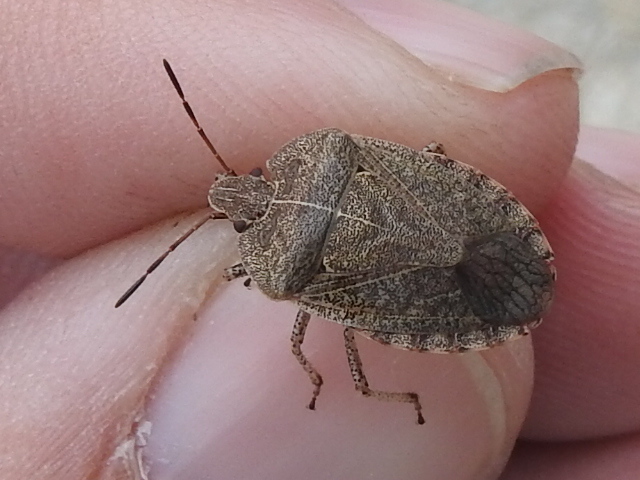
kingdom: Animalia
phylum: Arthropoda
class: Insecta
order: Hemiptera
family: Pentatomidae
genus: Menecles
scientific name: Menecles insertus
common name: Elf shoe stink bug
